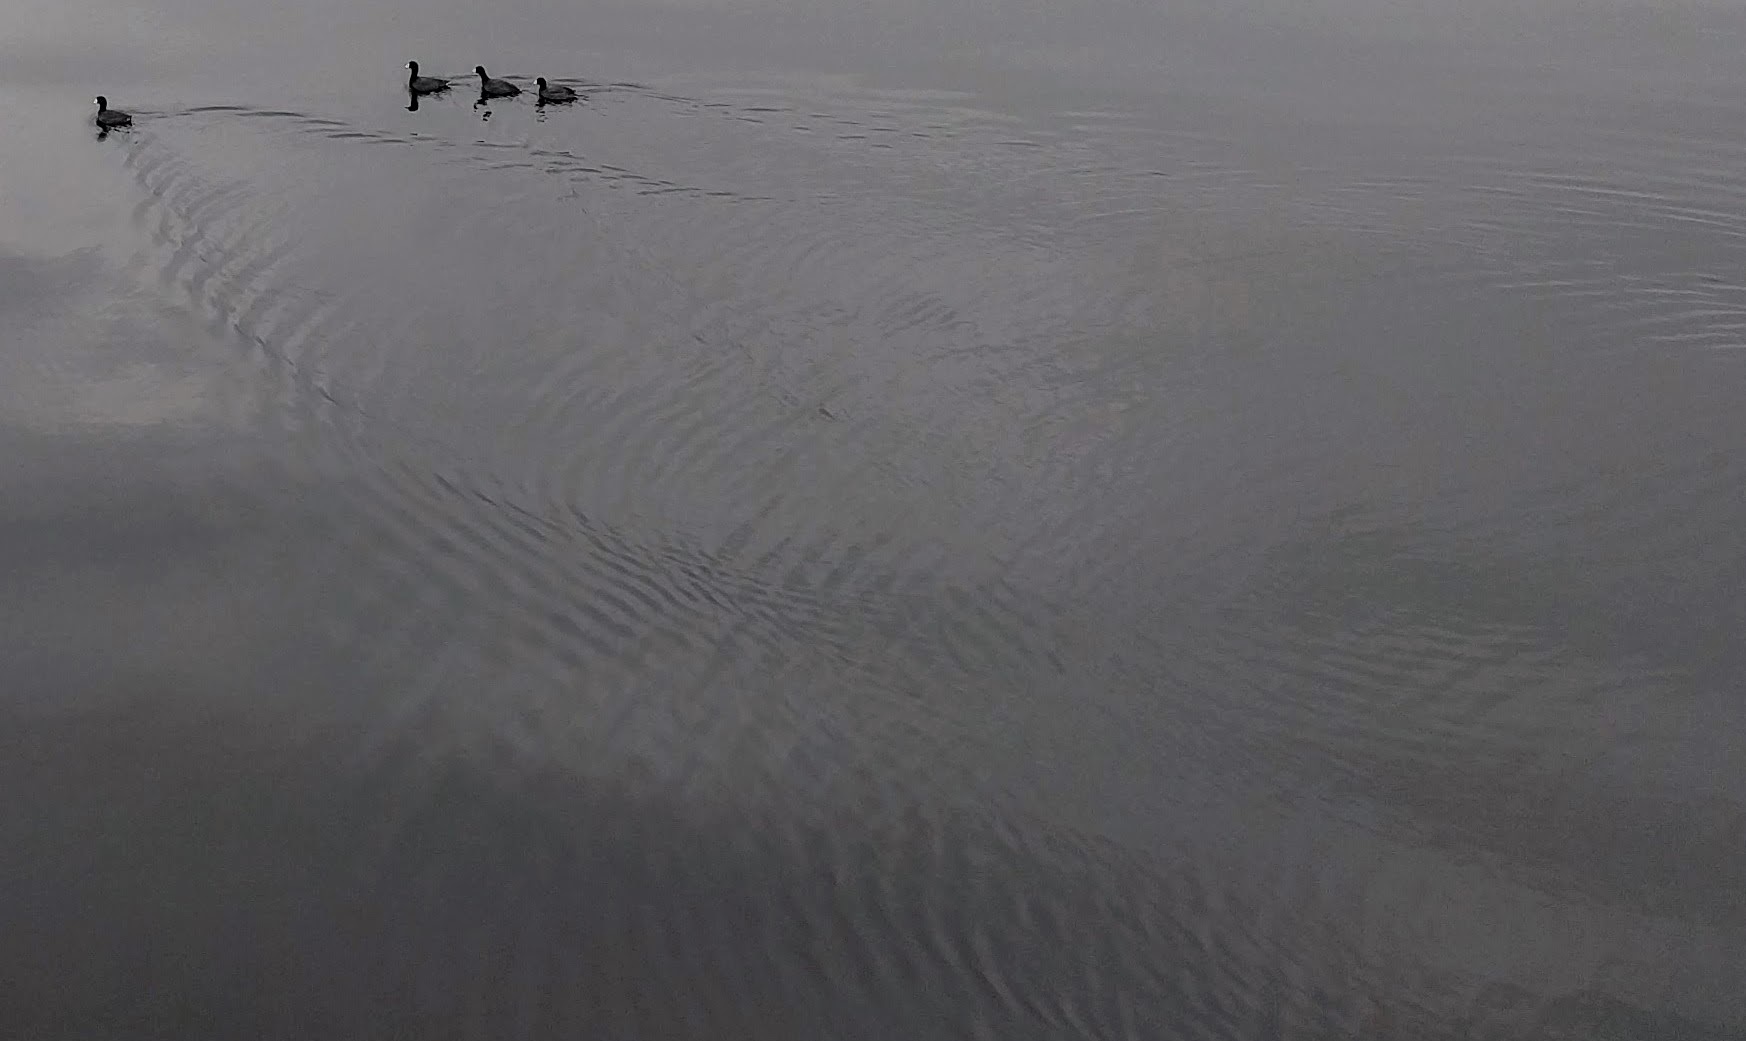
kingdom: Animalia
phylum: Chordata
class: Aves
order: Gruiformes
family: Rallidae
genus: Fulica
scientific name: Fulica americana
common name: American coot
